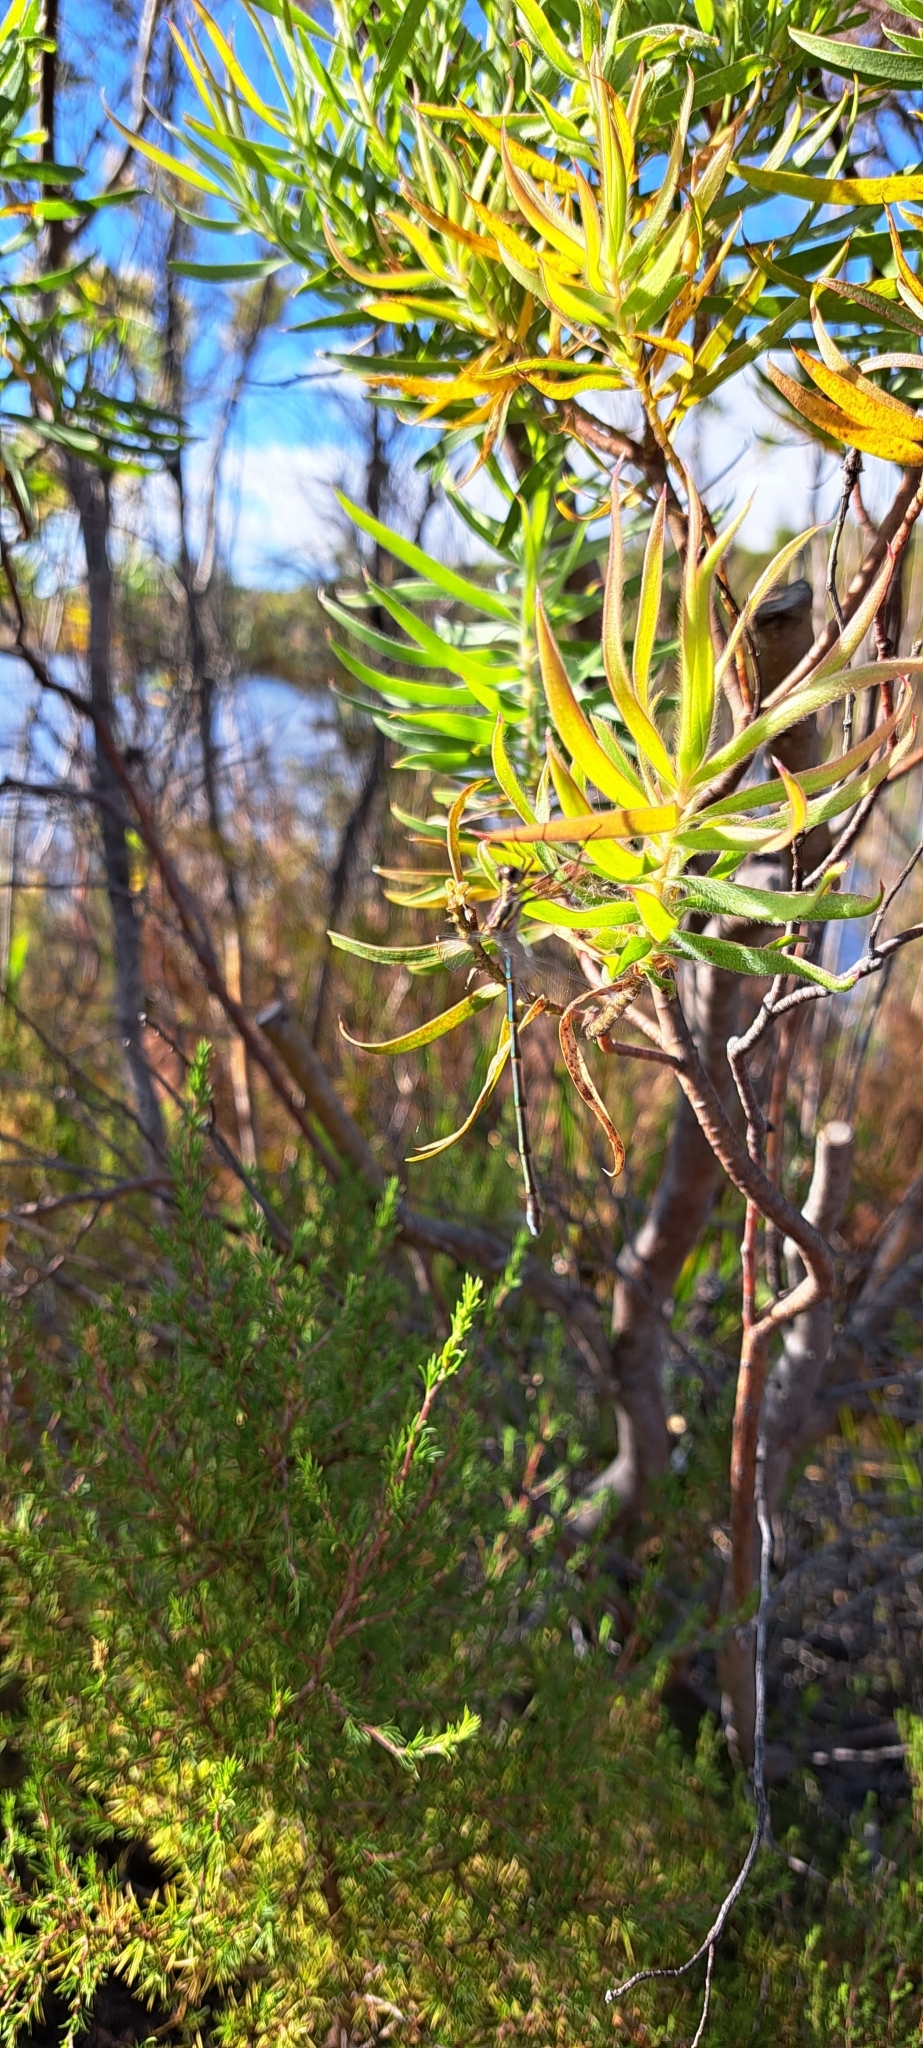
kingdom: Animalia
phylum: Arthropoda
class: Insecta
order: Odonata
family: Synlestidae
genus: Chlorolestes
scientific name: Chlorolestes conspicuus
